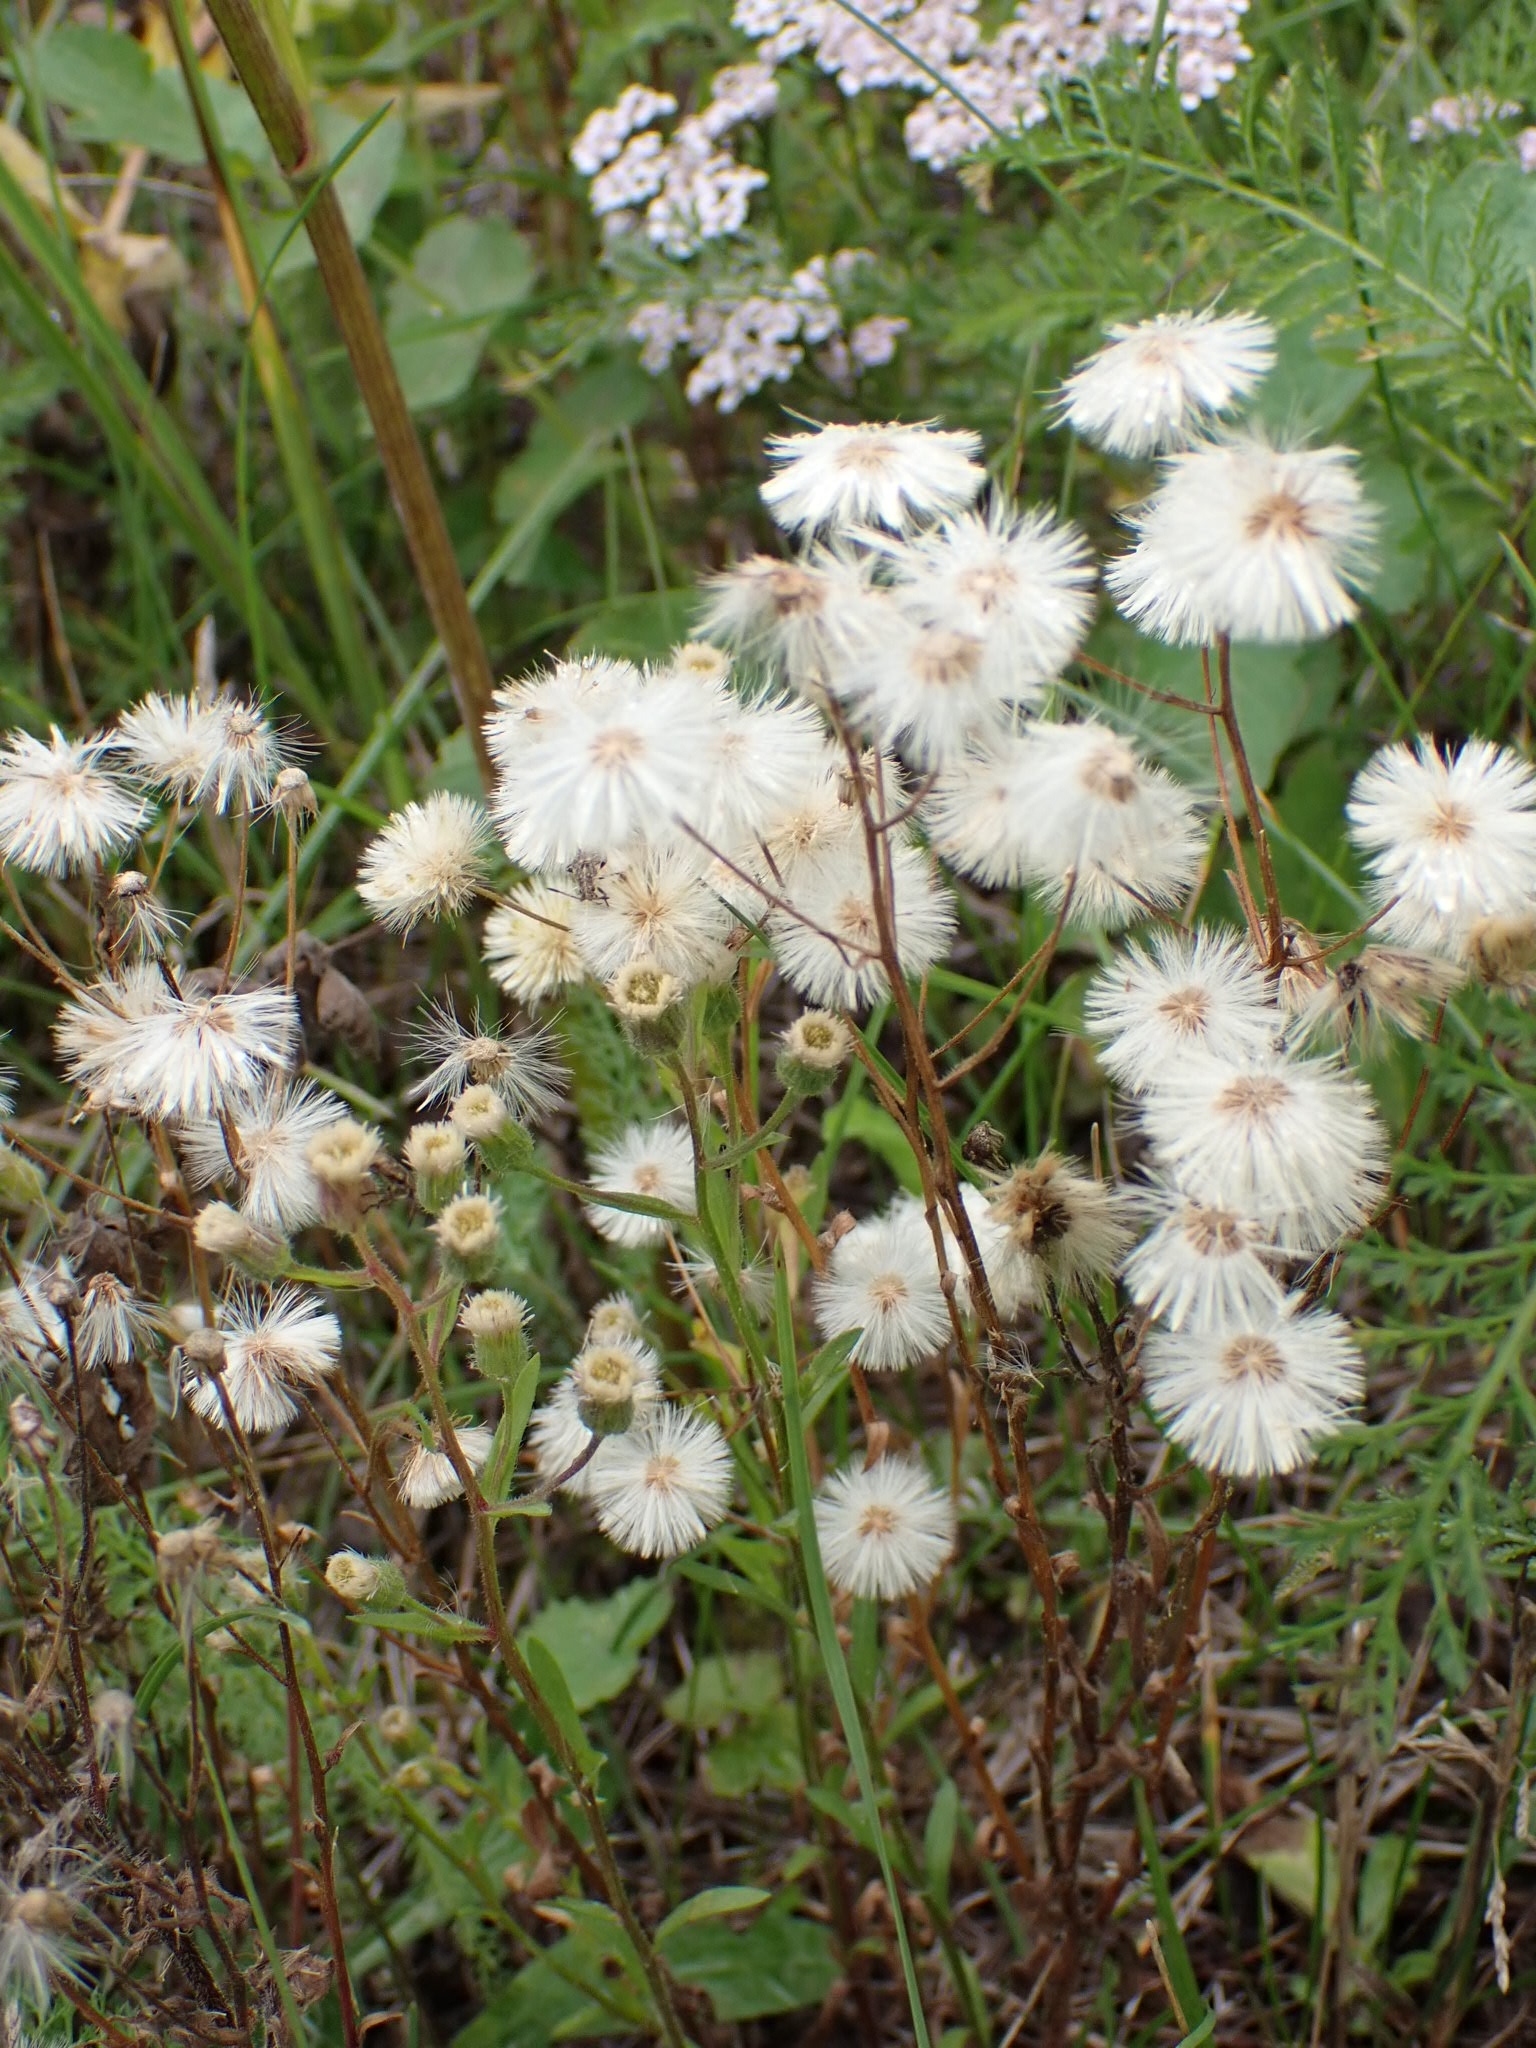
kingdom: Plantae
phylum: Tracheophyta
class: Magnoliopsida
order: Asterales
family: Asteraceae
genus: Erigeron
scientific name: Erigeron acris
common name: Blue fleabane
